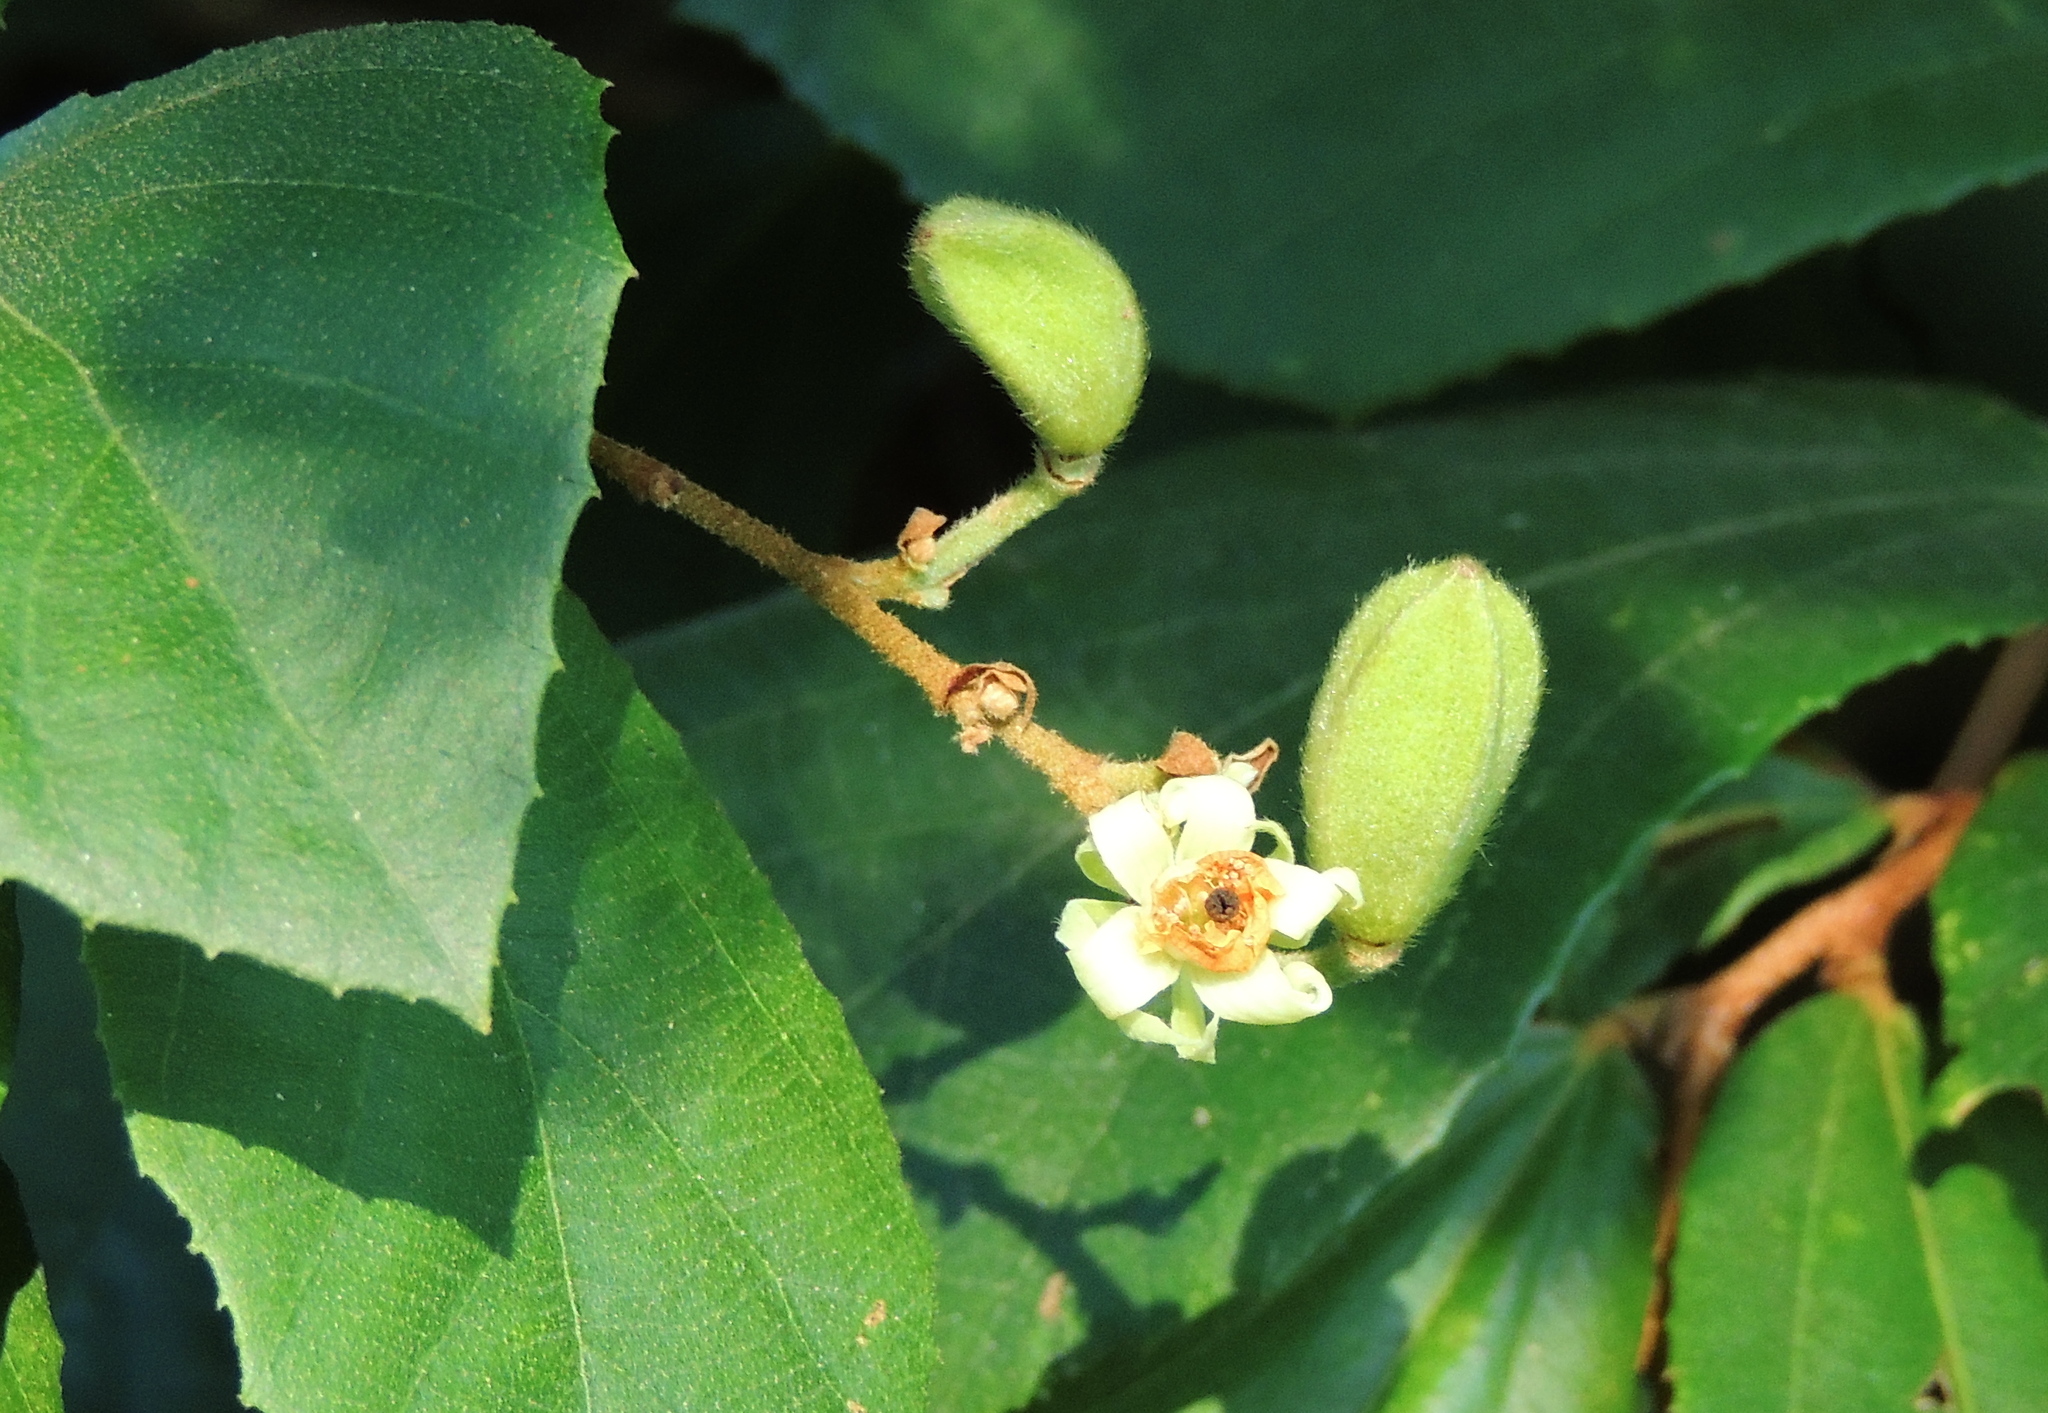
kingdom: Plantae
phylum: Tracheophyta
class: Magnoliopsida
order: Malvales
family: Malvaceae
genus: Luehea
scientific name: Luehea ochrophylla
